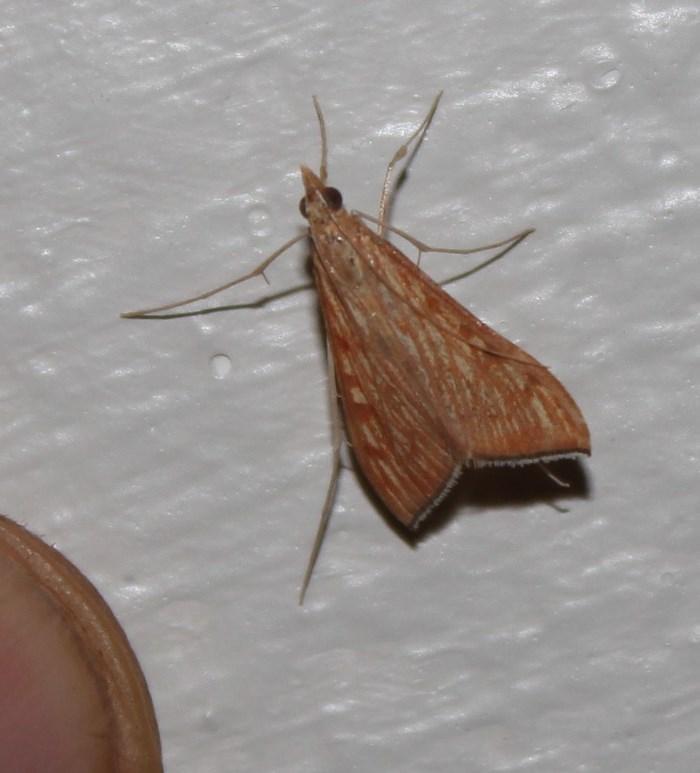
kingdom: Animalia
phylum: Arthropoda
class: Insecta
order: Lepidoptera
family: Crambidae
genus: Antigastra
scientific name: Antigastra catalaunalis
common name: Spanish dot
